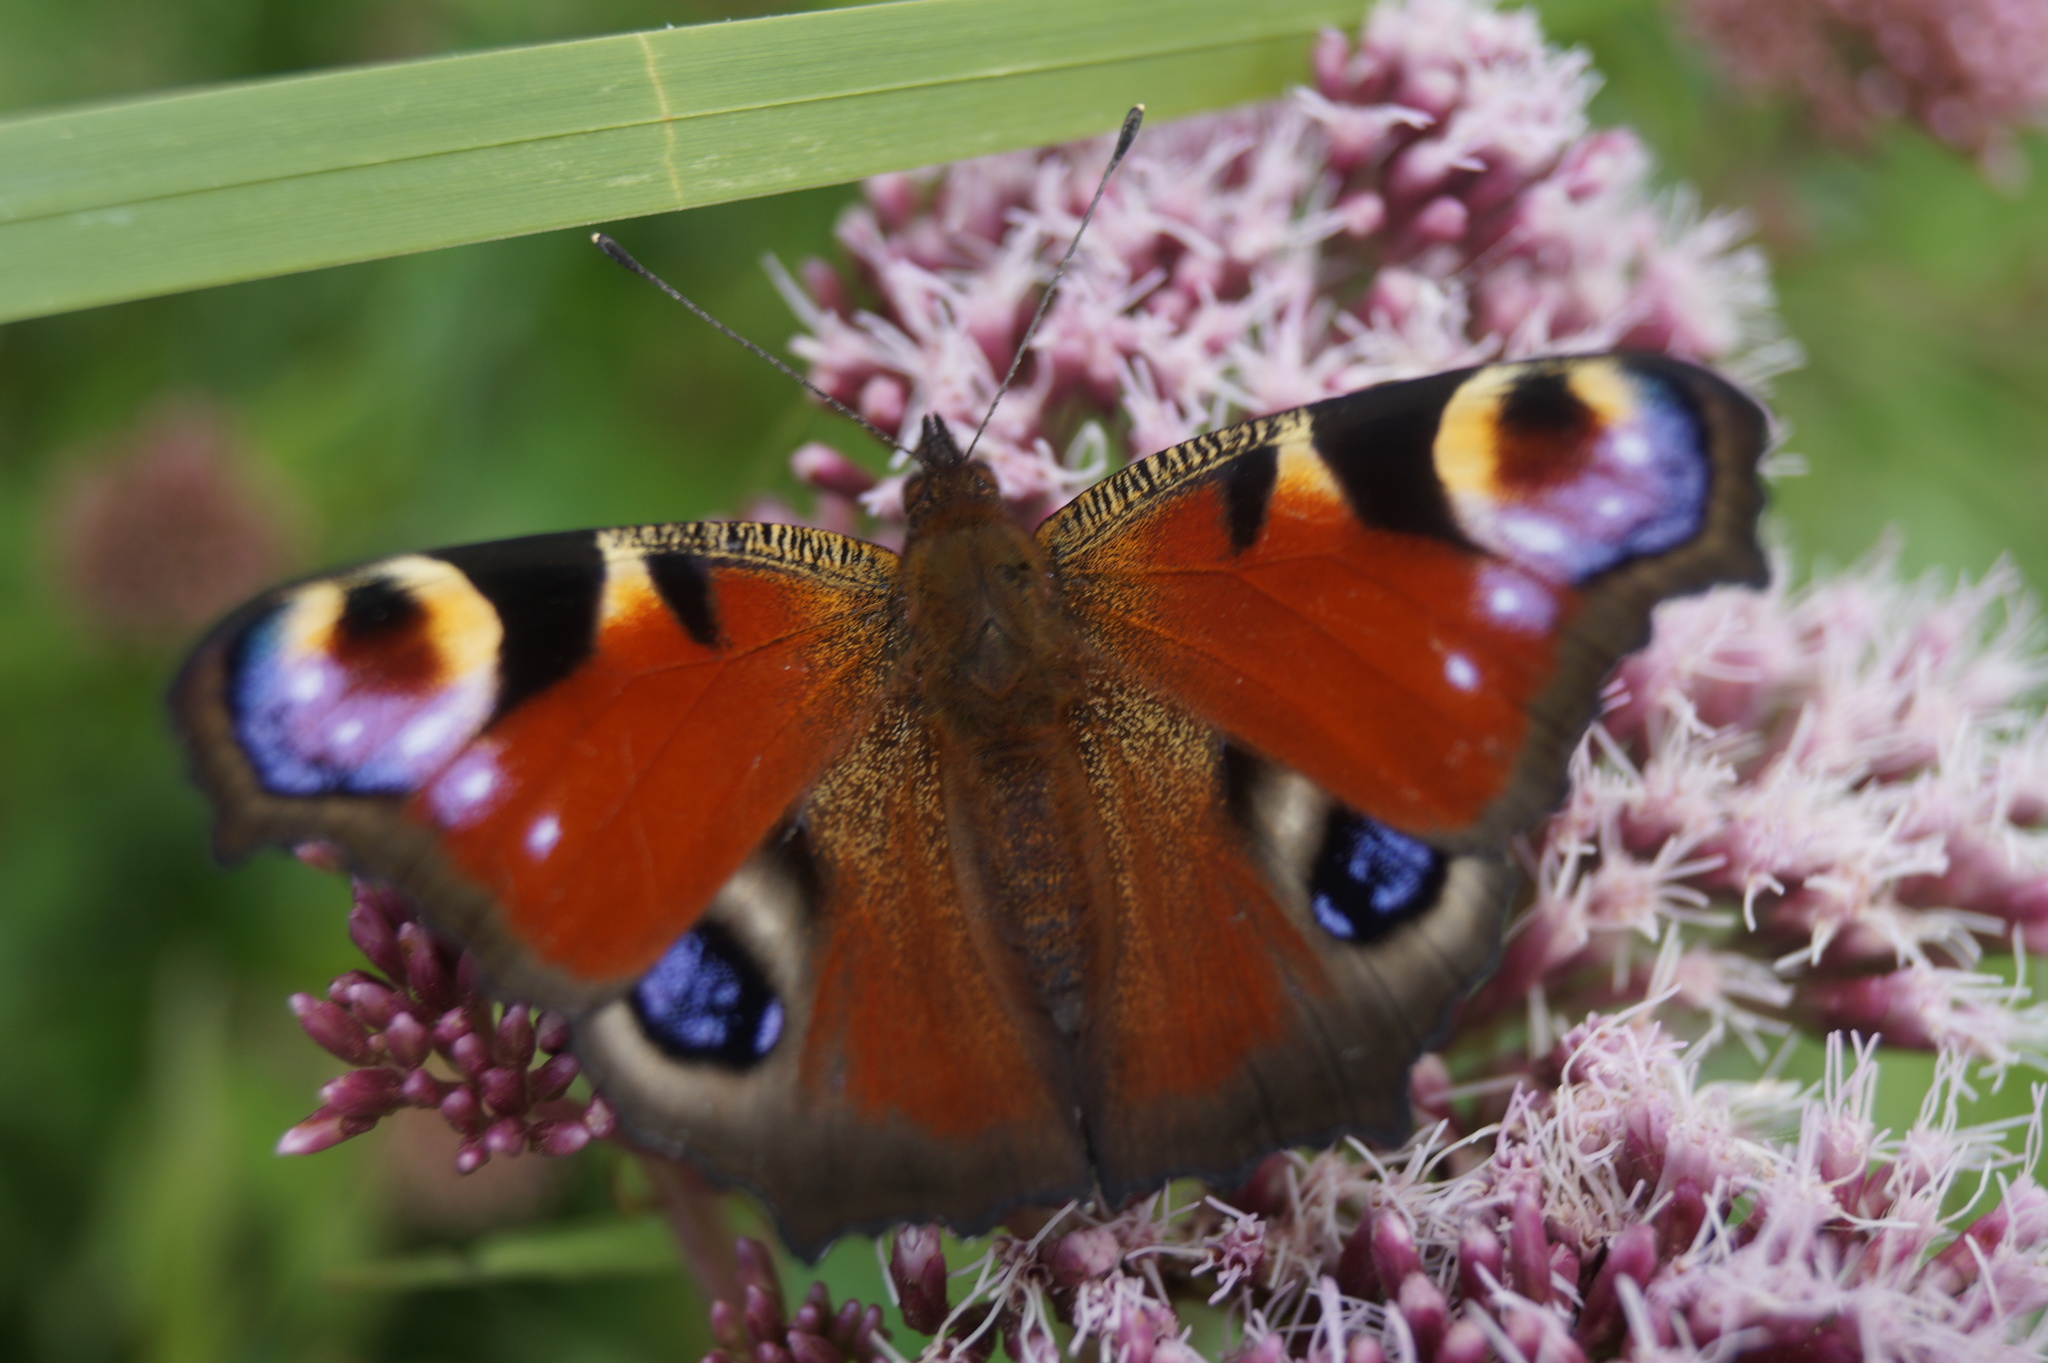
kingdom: Animalia
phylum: Arthropoda
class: Insecta
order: Lepidoptera
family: Nymphalidae
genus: Aglais
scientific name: Aglais io
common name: Peacock
